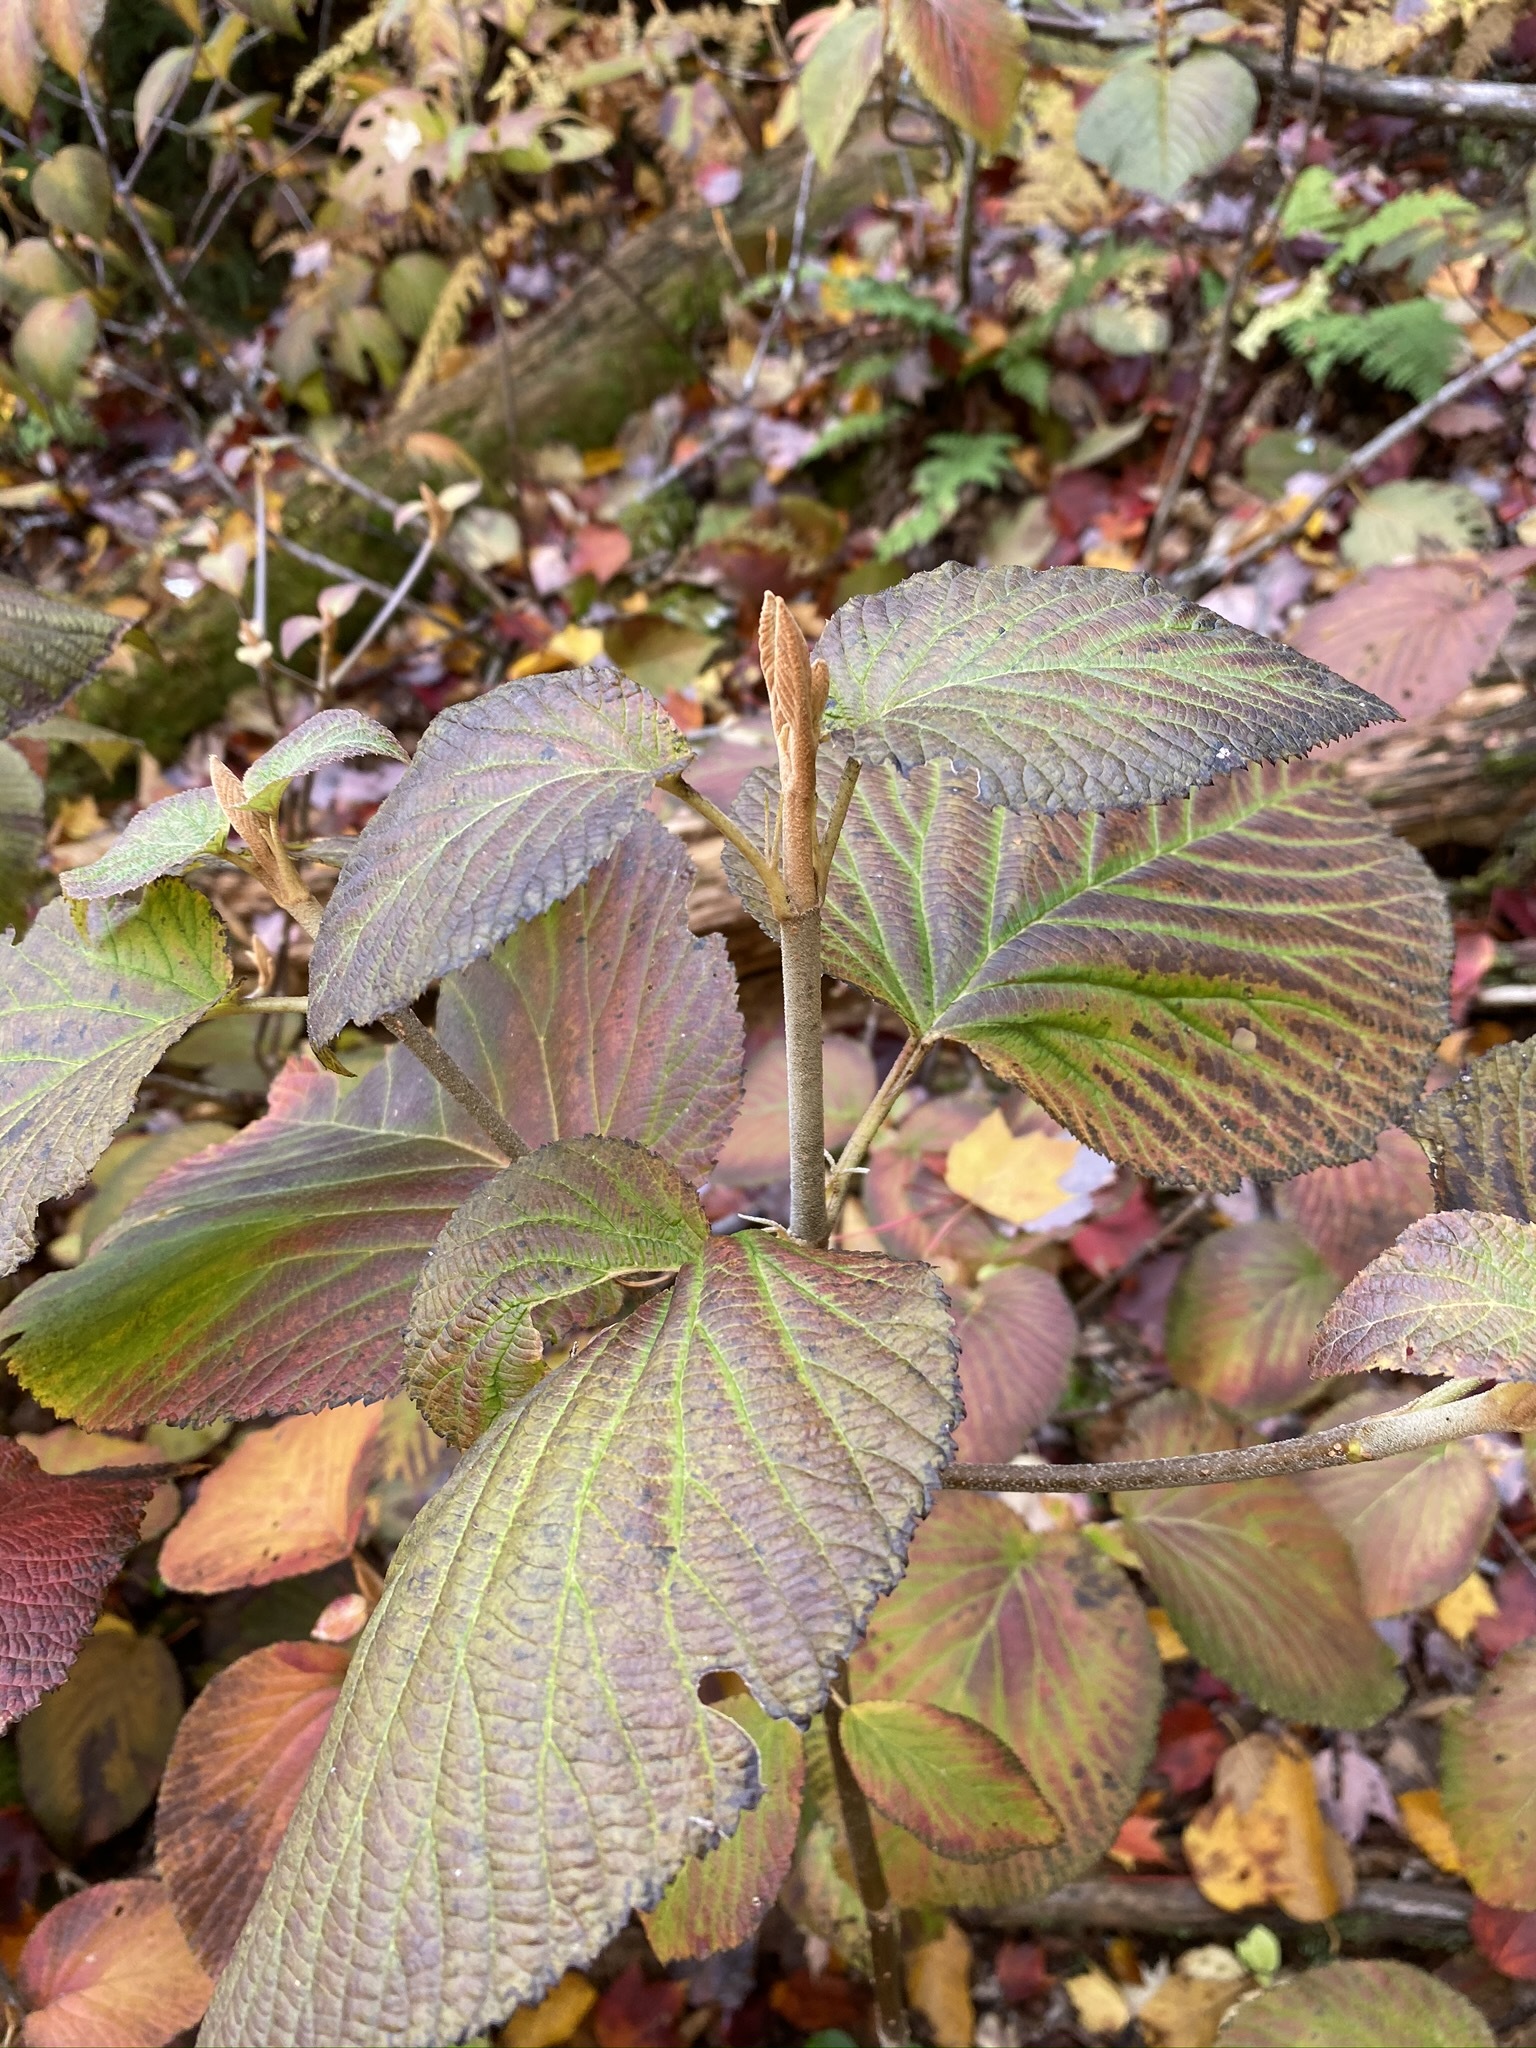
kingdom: Plantae
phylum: Tracheophyta
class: Magnoliopsida
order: Dipsacales
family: Viburnaceae
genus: Viburnum
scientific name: Viburnum lantanoides
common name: Hobblebush
